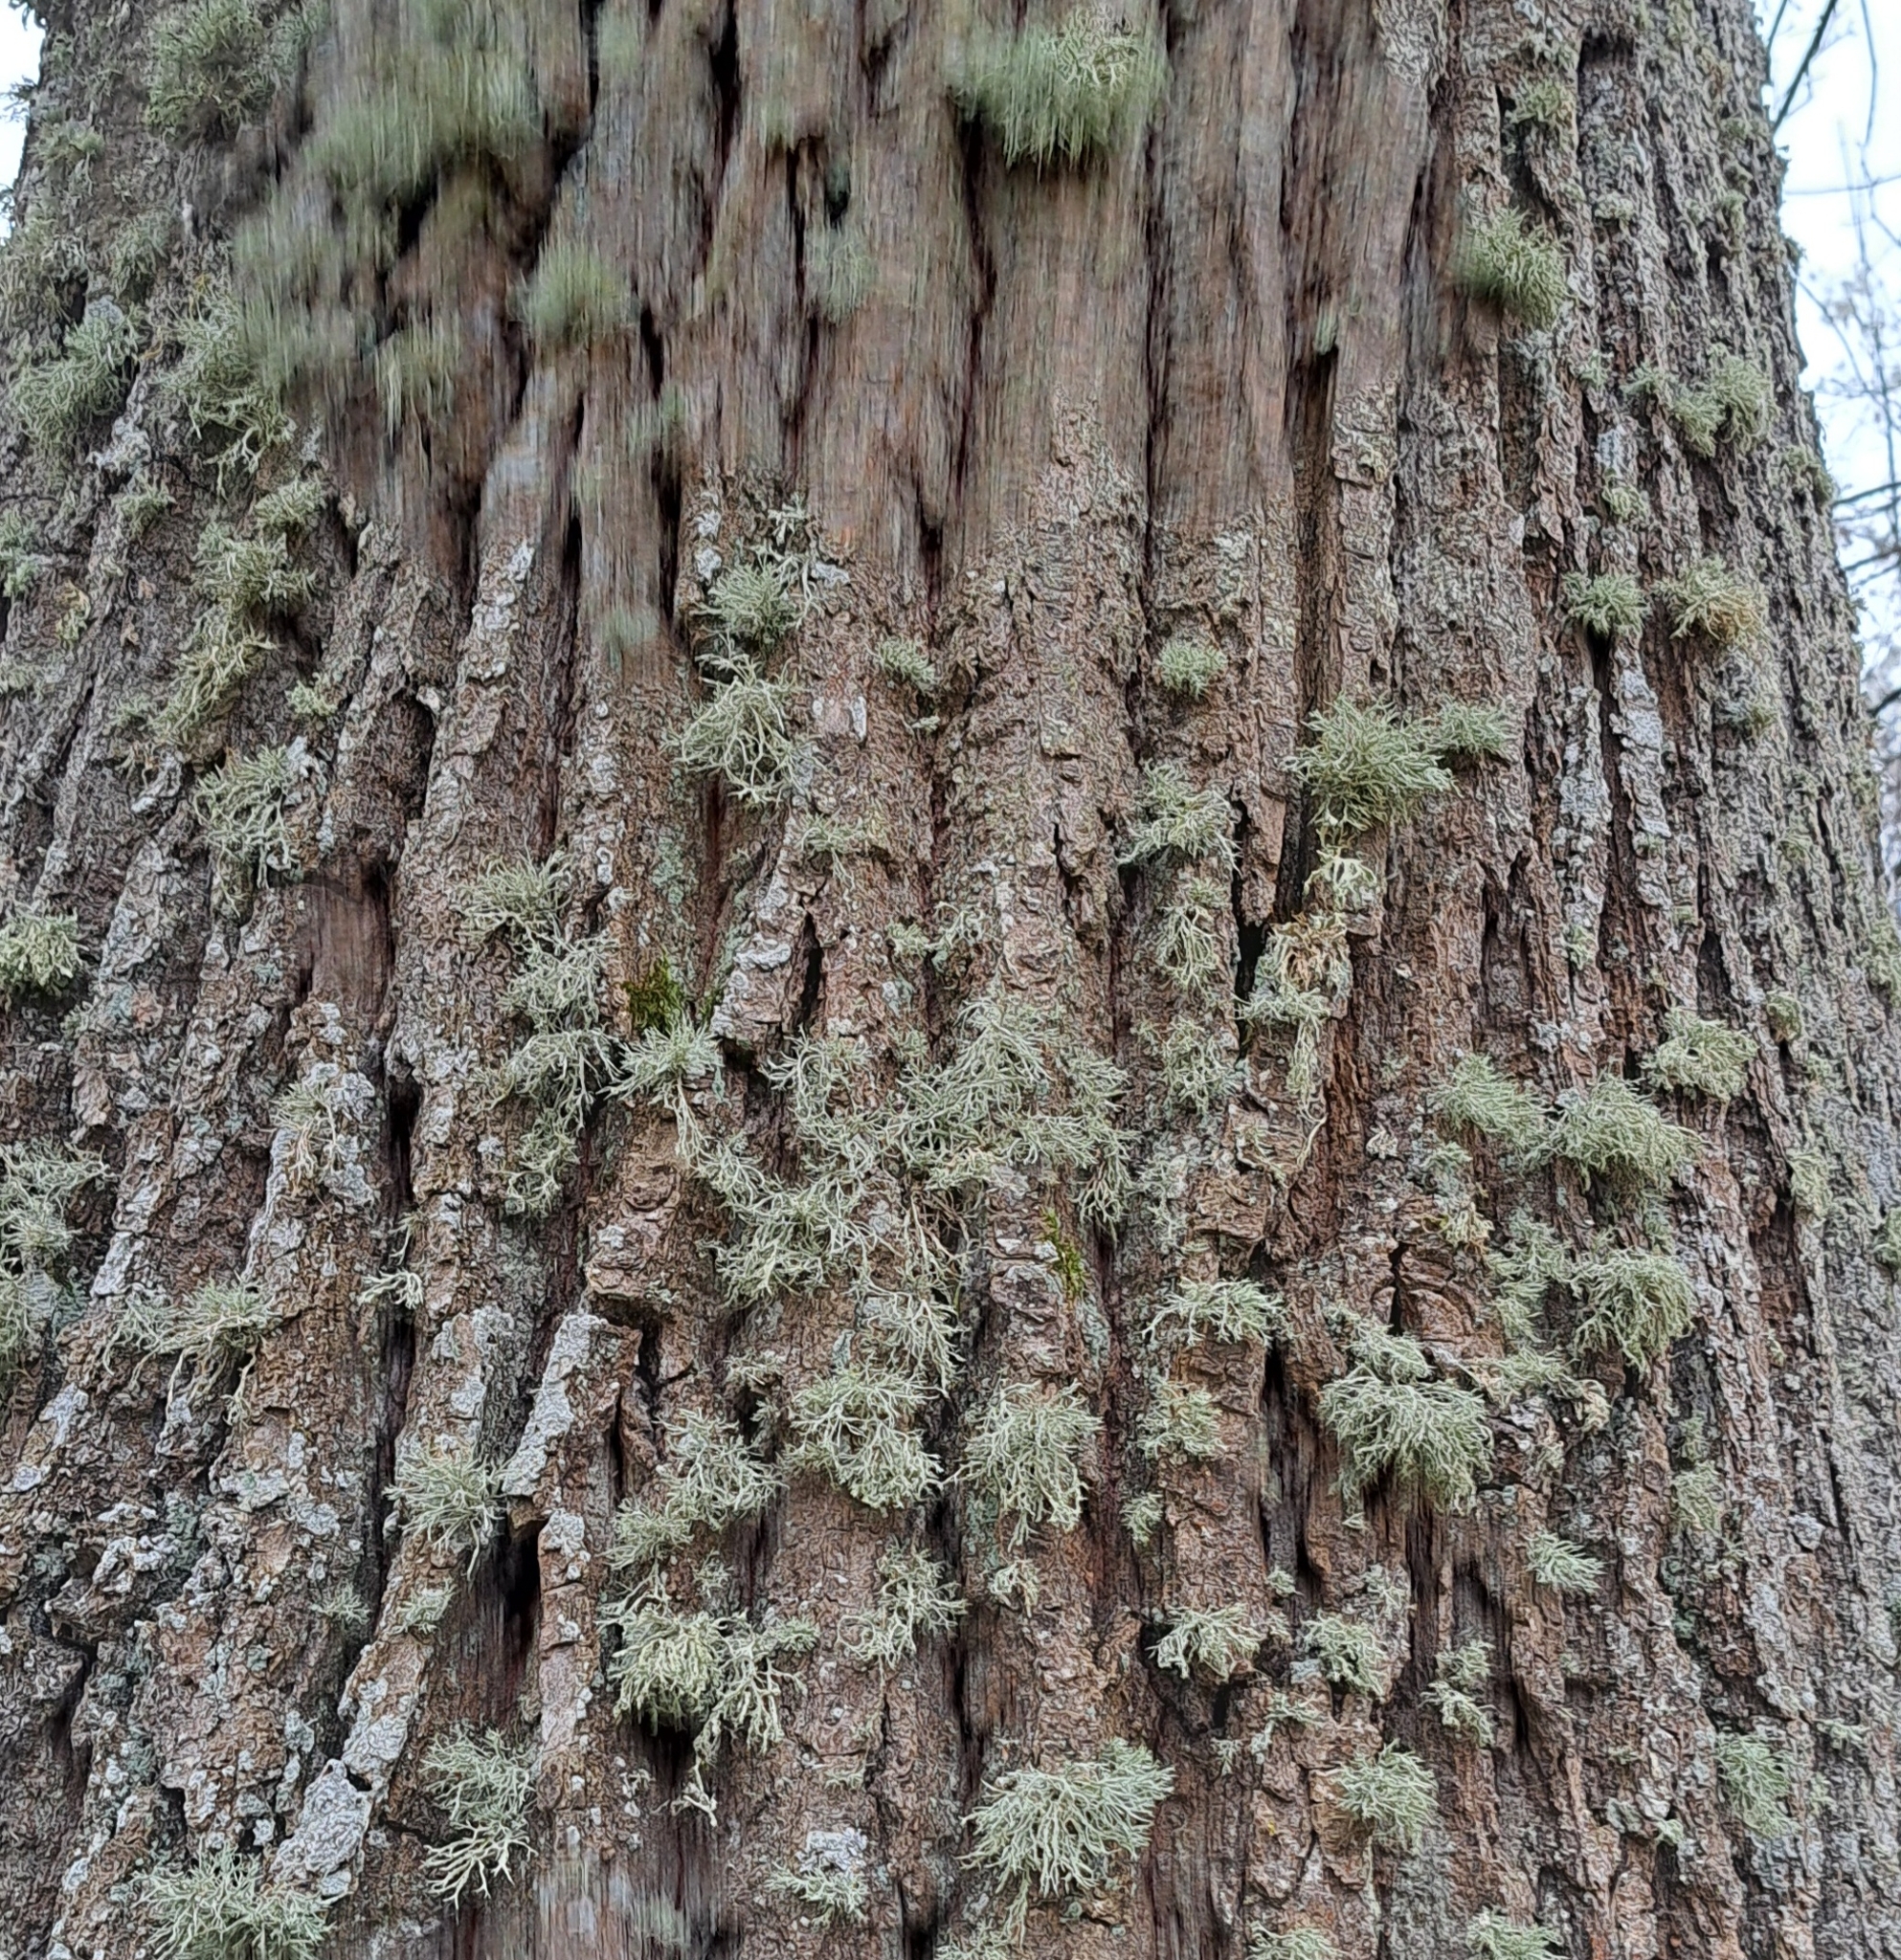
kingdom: Fungi
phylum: Ascomycota
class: Lecanoromycetes
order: Lecanorales
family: Ramalinaceae
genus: Ramalina
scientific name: Ramalina farinacea
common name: Farinose cartilage lichen
